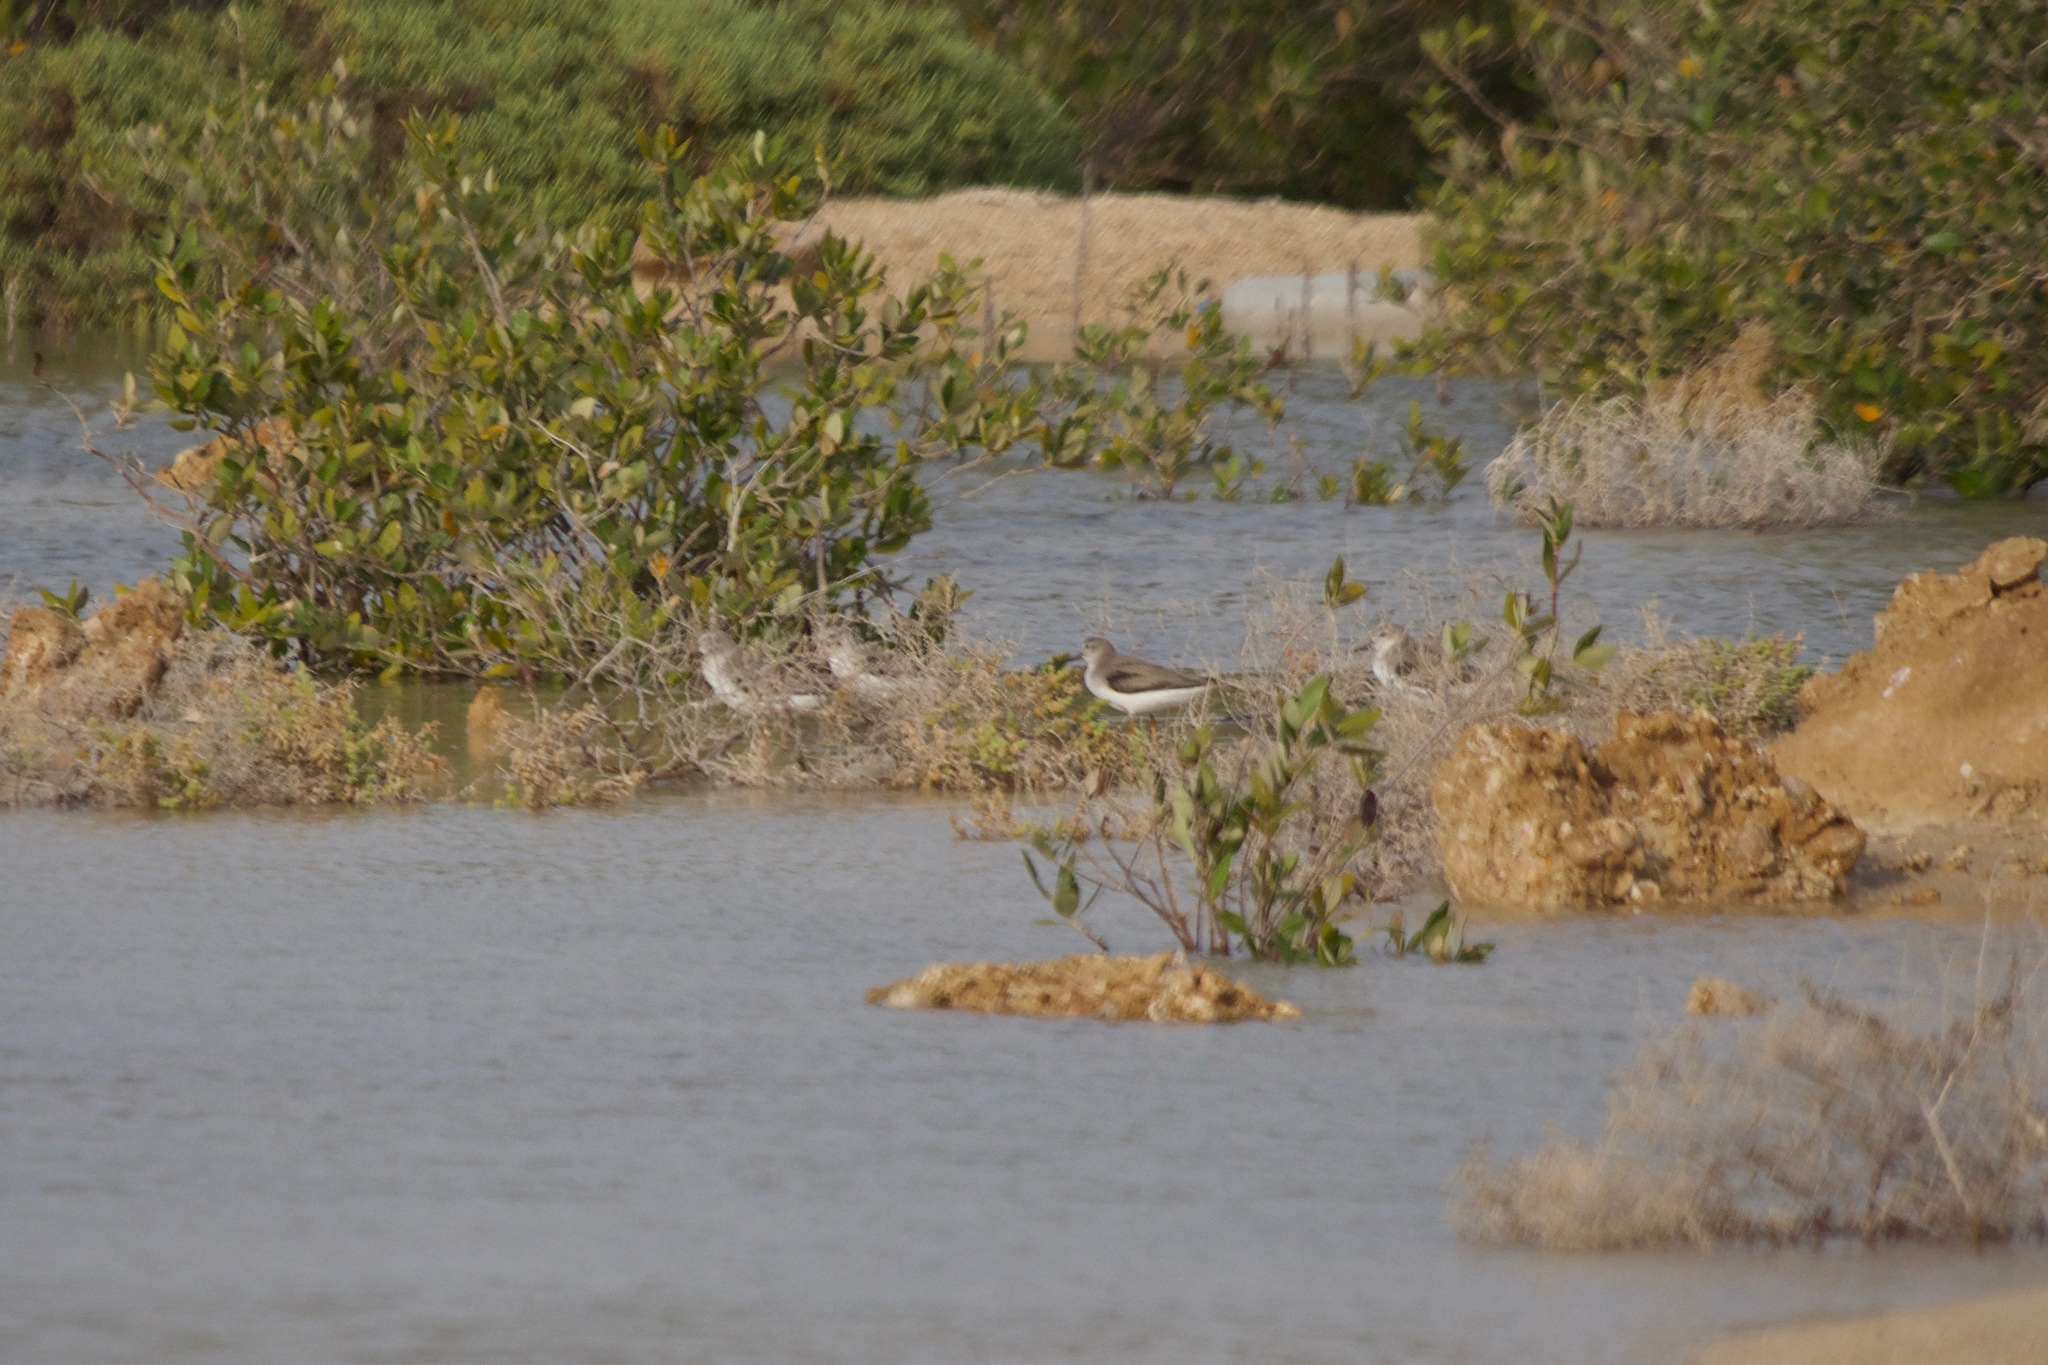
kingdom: Animalia
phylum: Chordata
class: Aves
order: Charadriiformes
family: Scolopacidae
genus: Xenus
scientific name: Xenus cinereus
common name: Terek sandpiper
